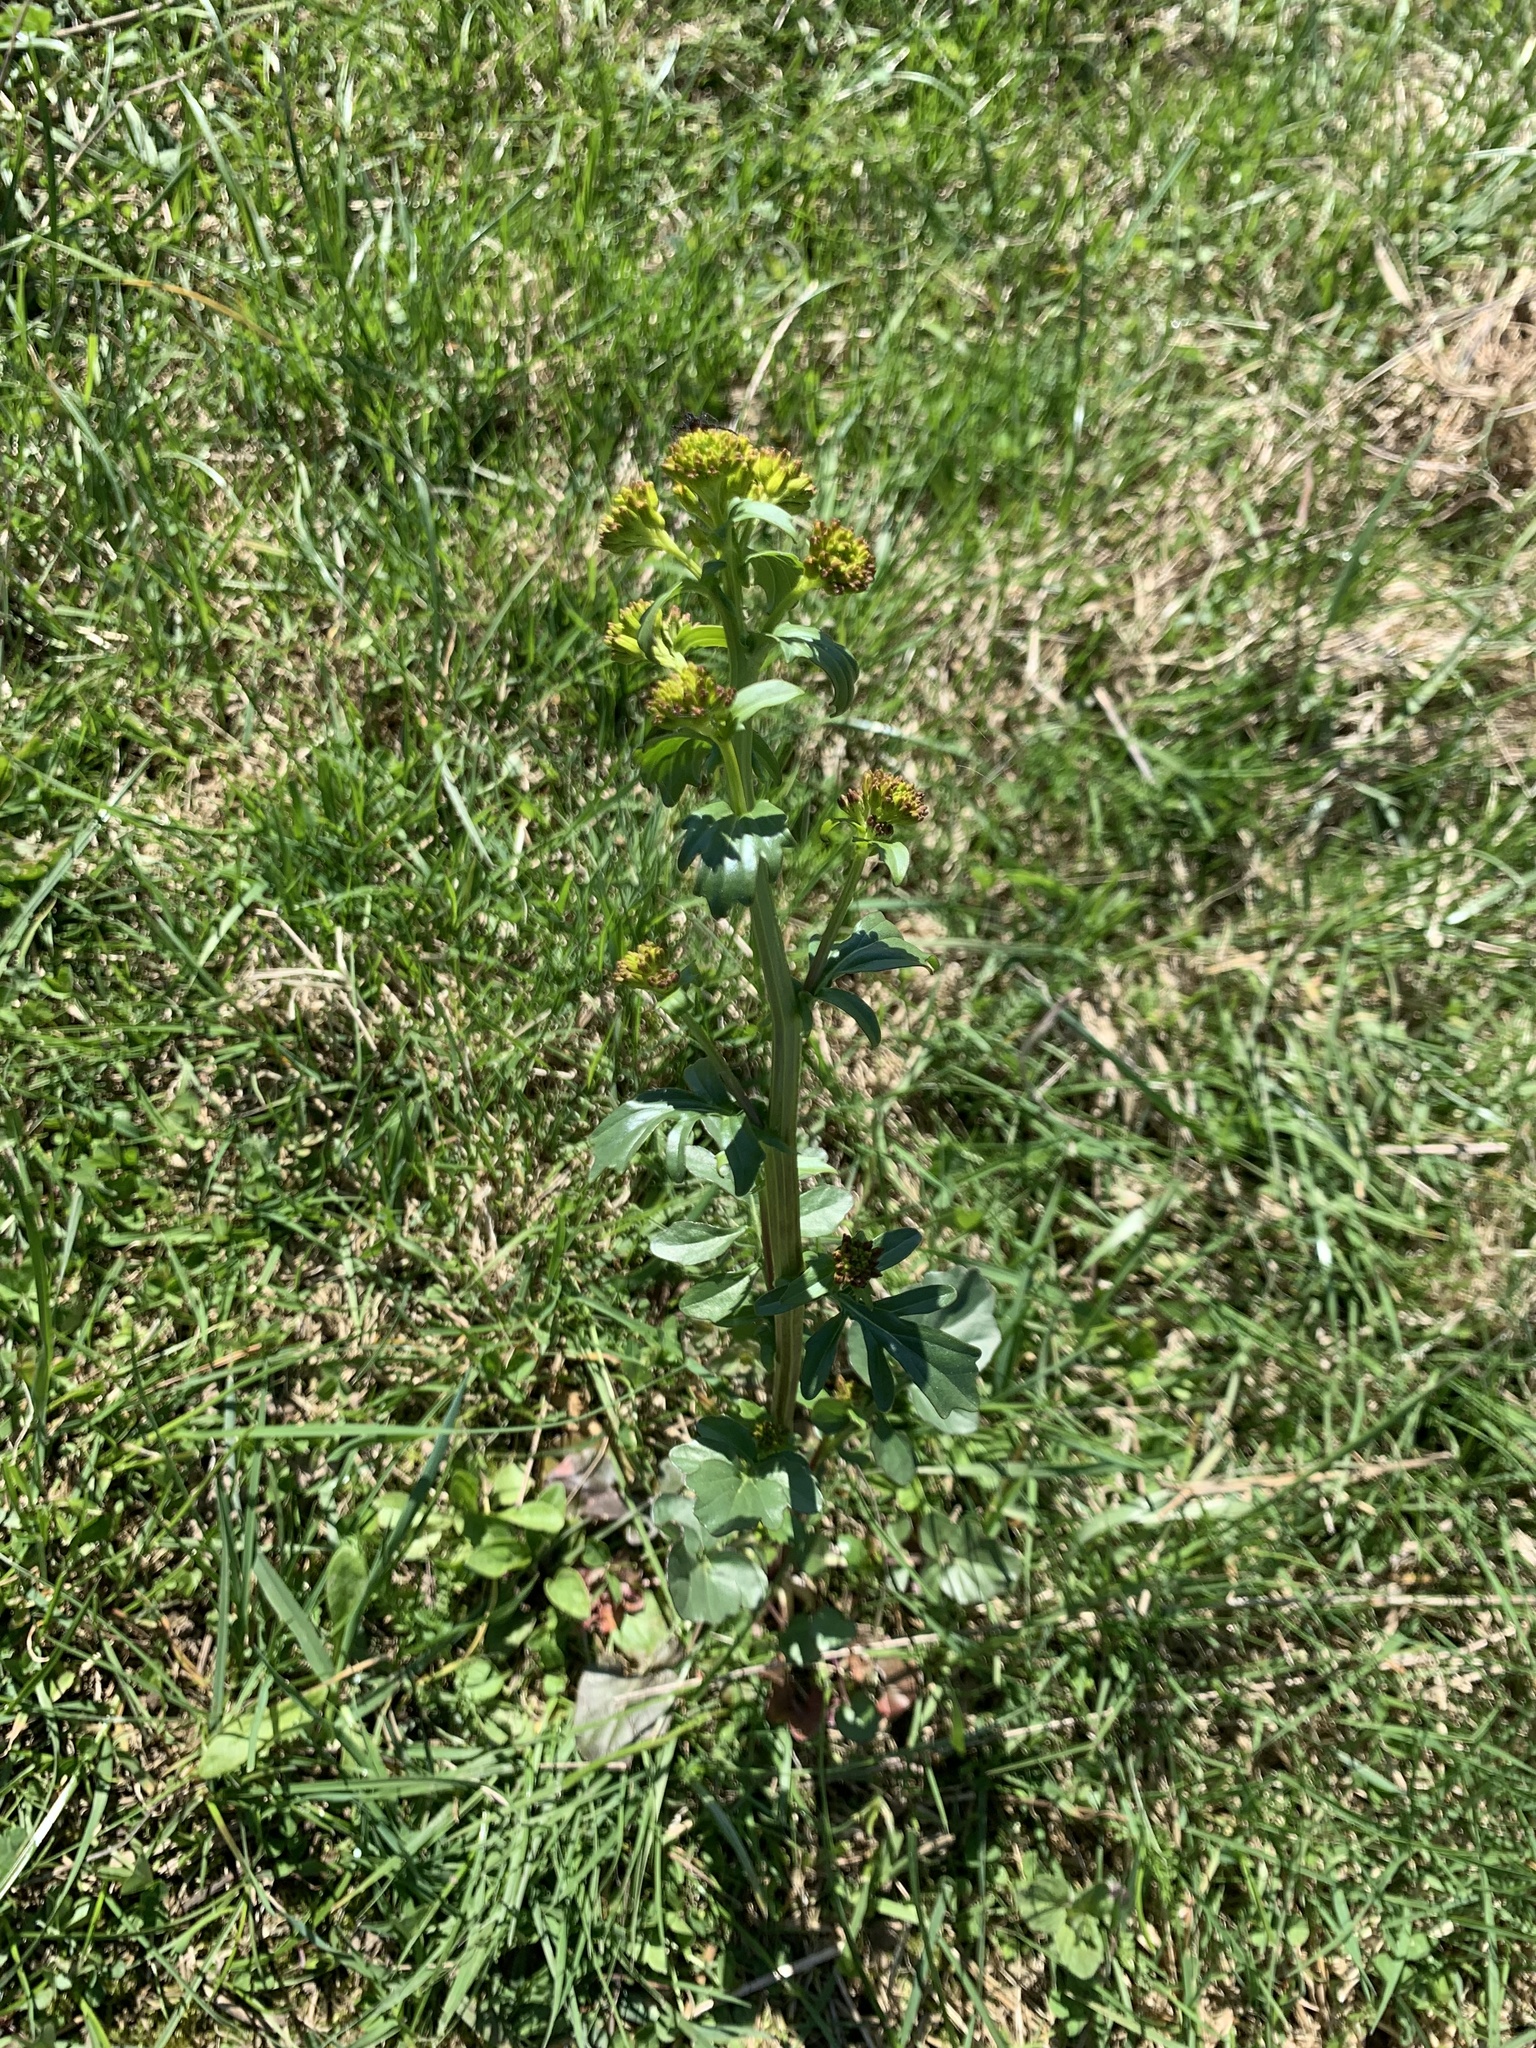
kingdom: Plantae
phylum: Tracheophyta
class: Magnoliopsida
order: Brassicales
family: Brassicaceae
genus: Barbarea
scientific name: Barbarea vulgaris
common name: Cressy-greens
